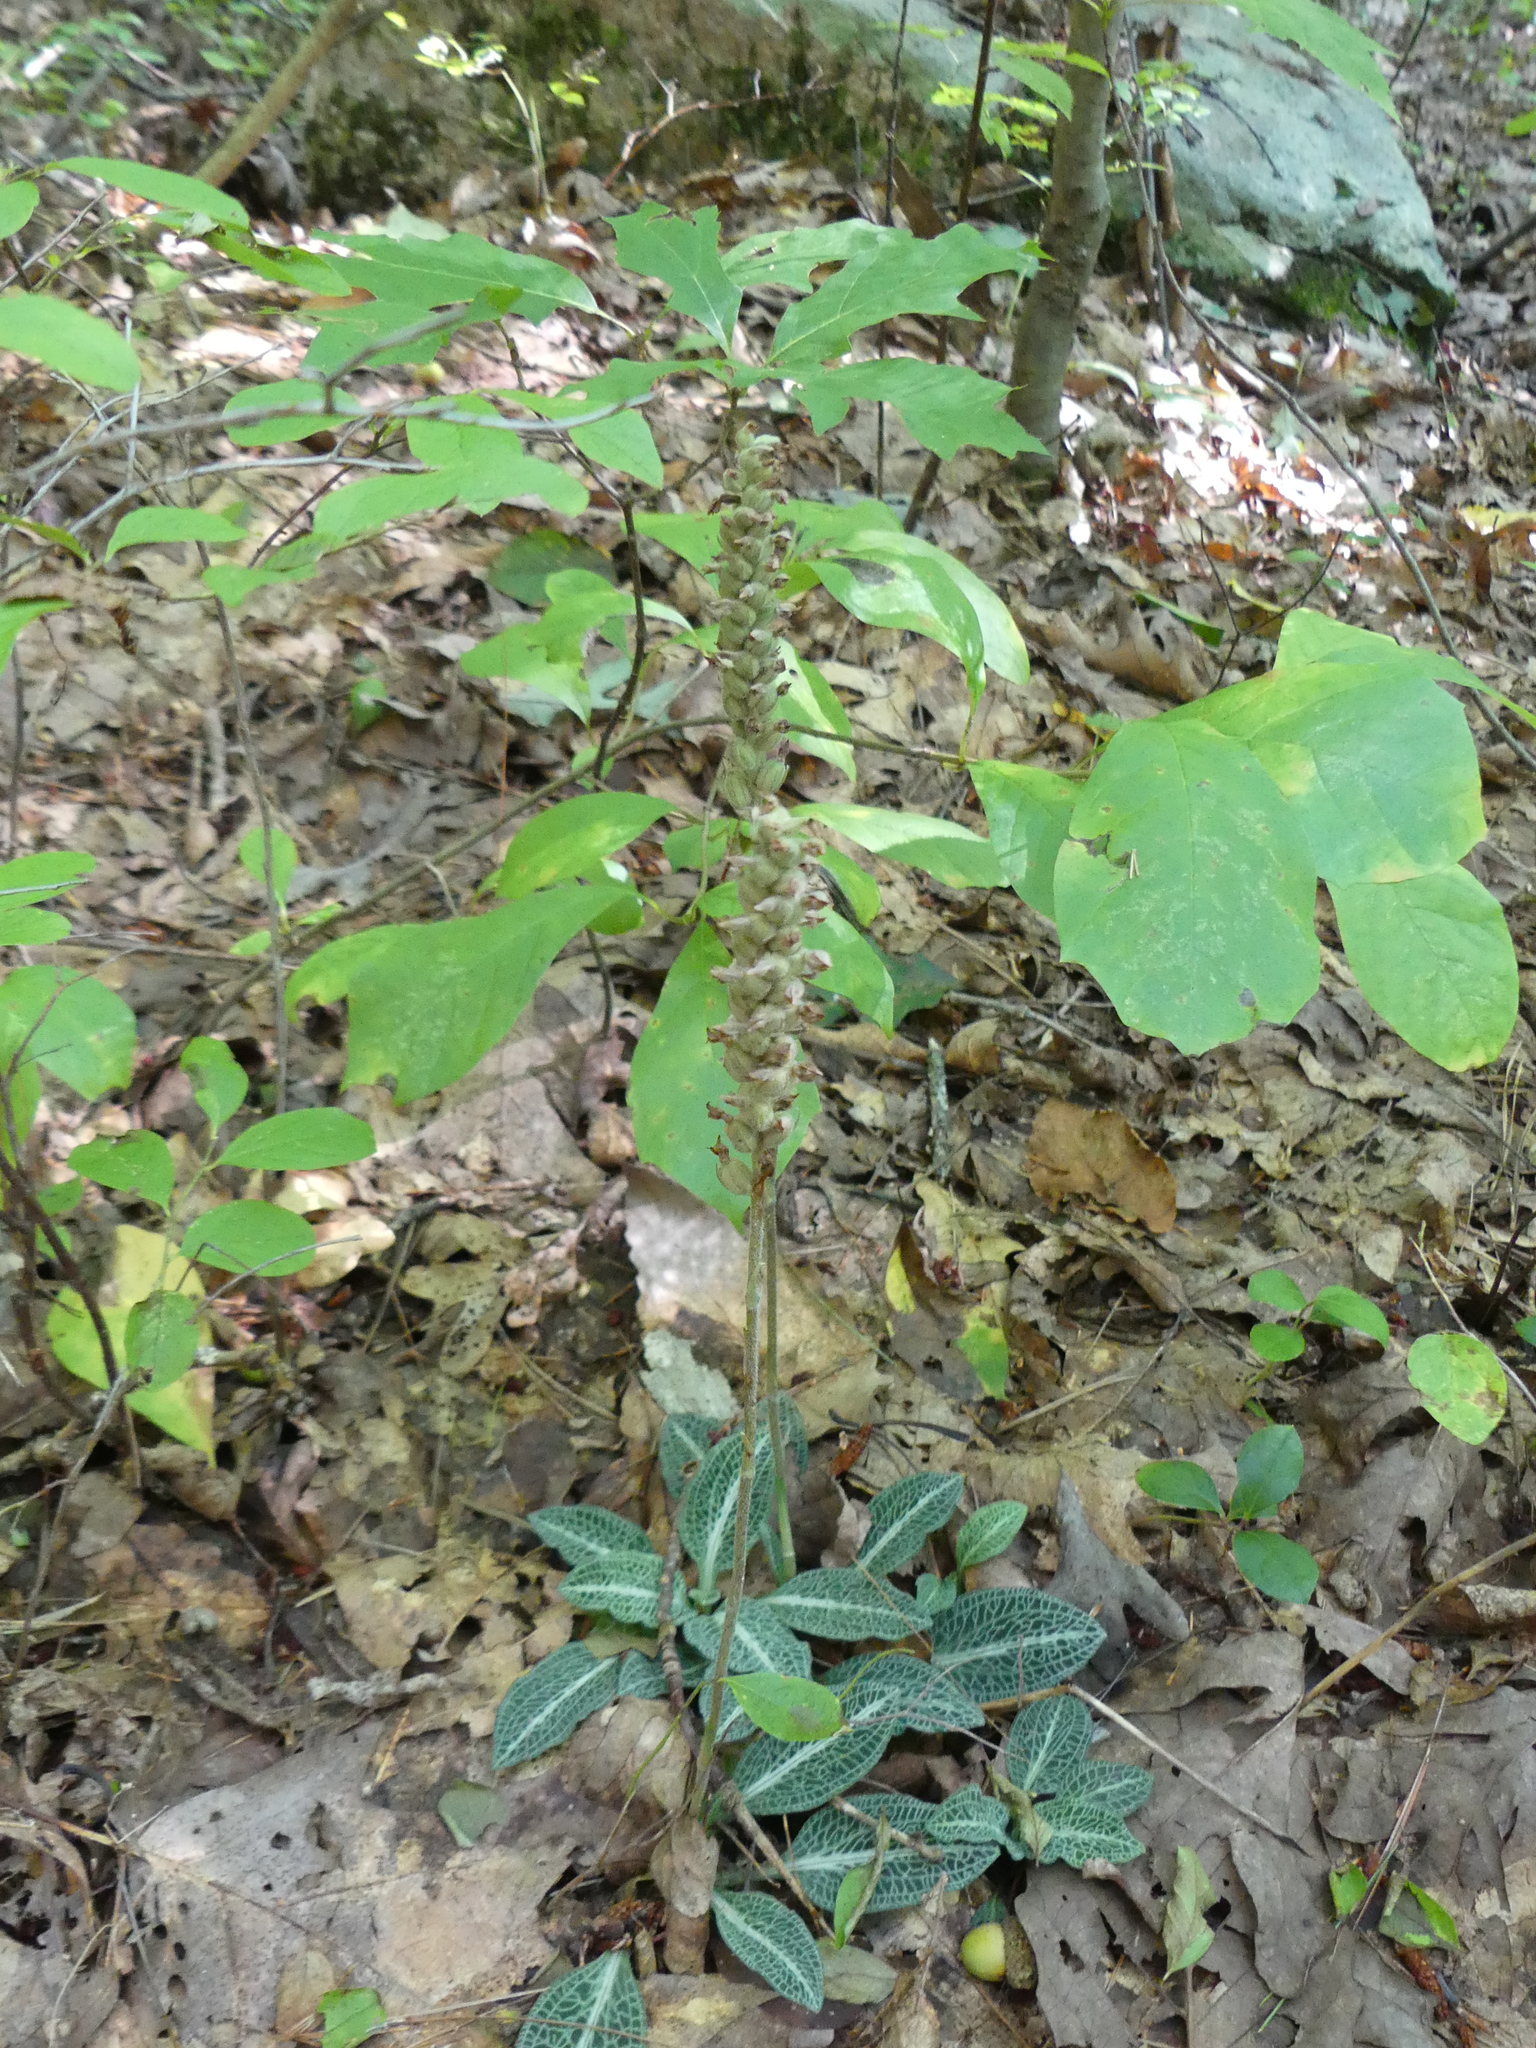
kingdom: Plantae
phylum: Tracheophyta
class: Liliopsida
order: Asparagales
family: Orchidaceae
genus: Goodyera
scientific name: Goodyera pubescens
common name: Downy rattlesnake-plantain
